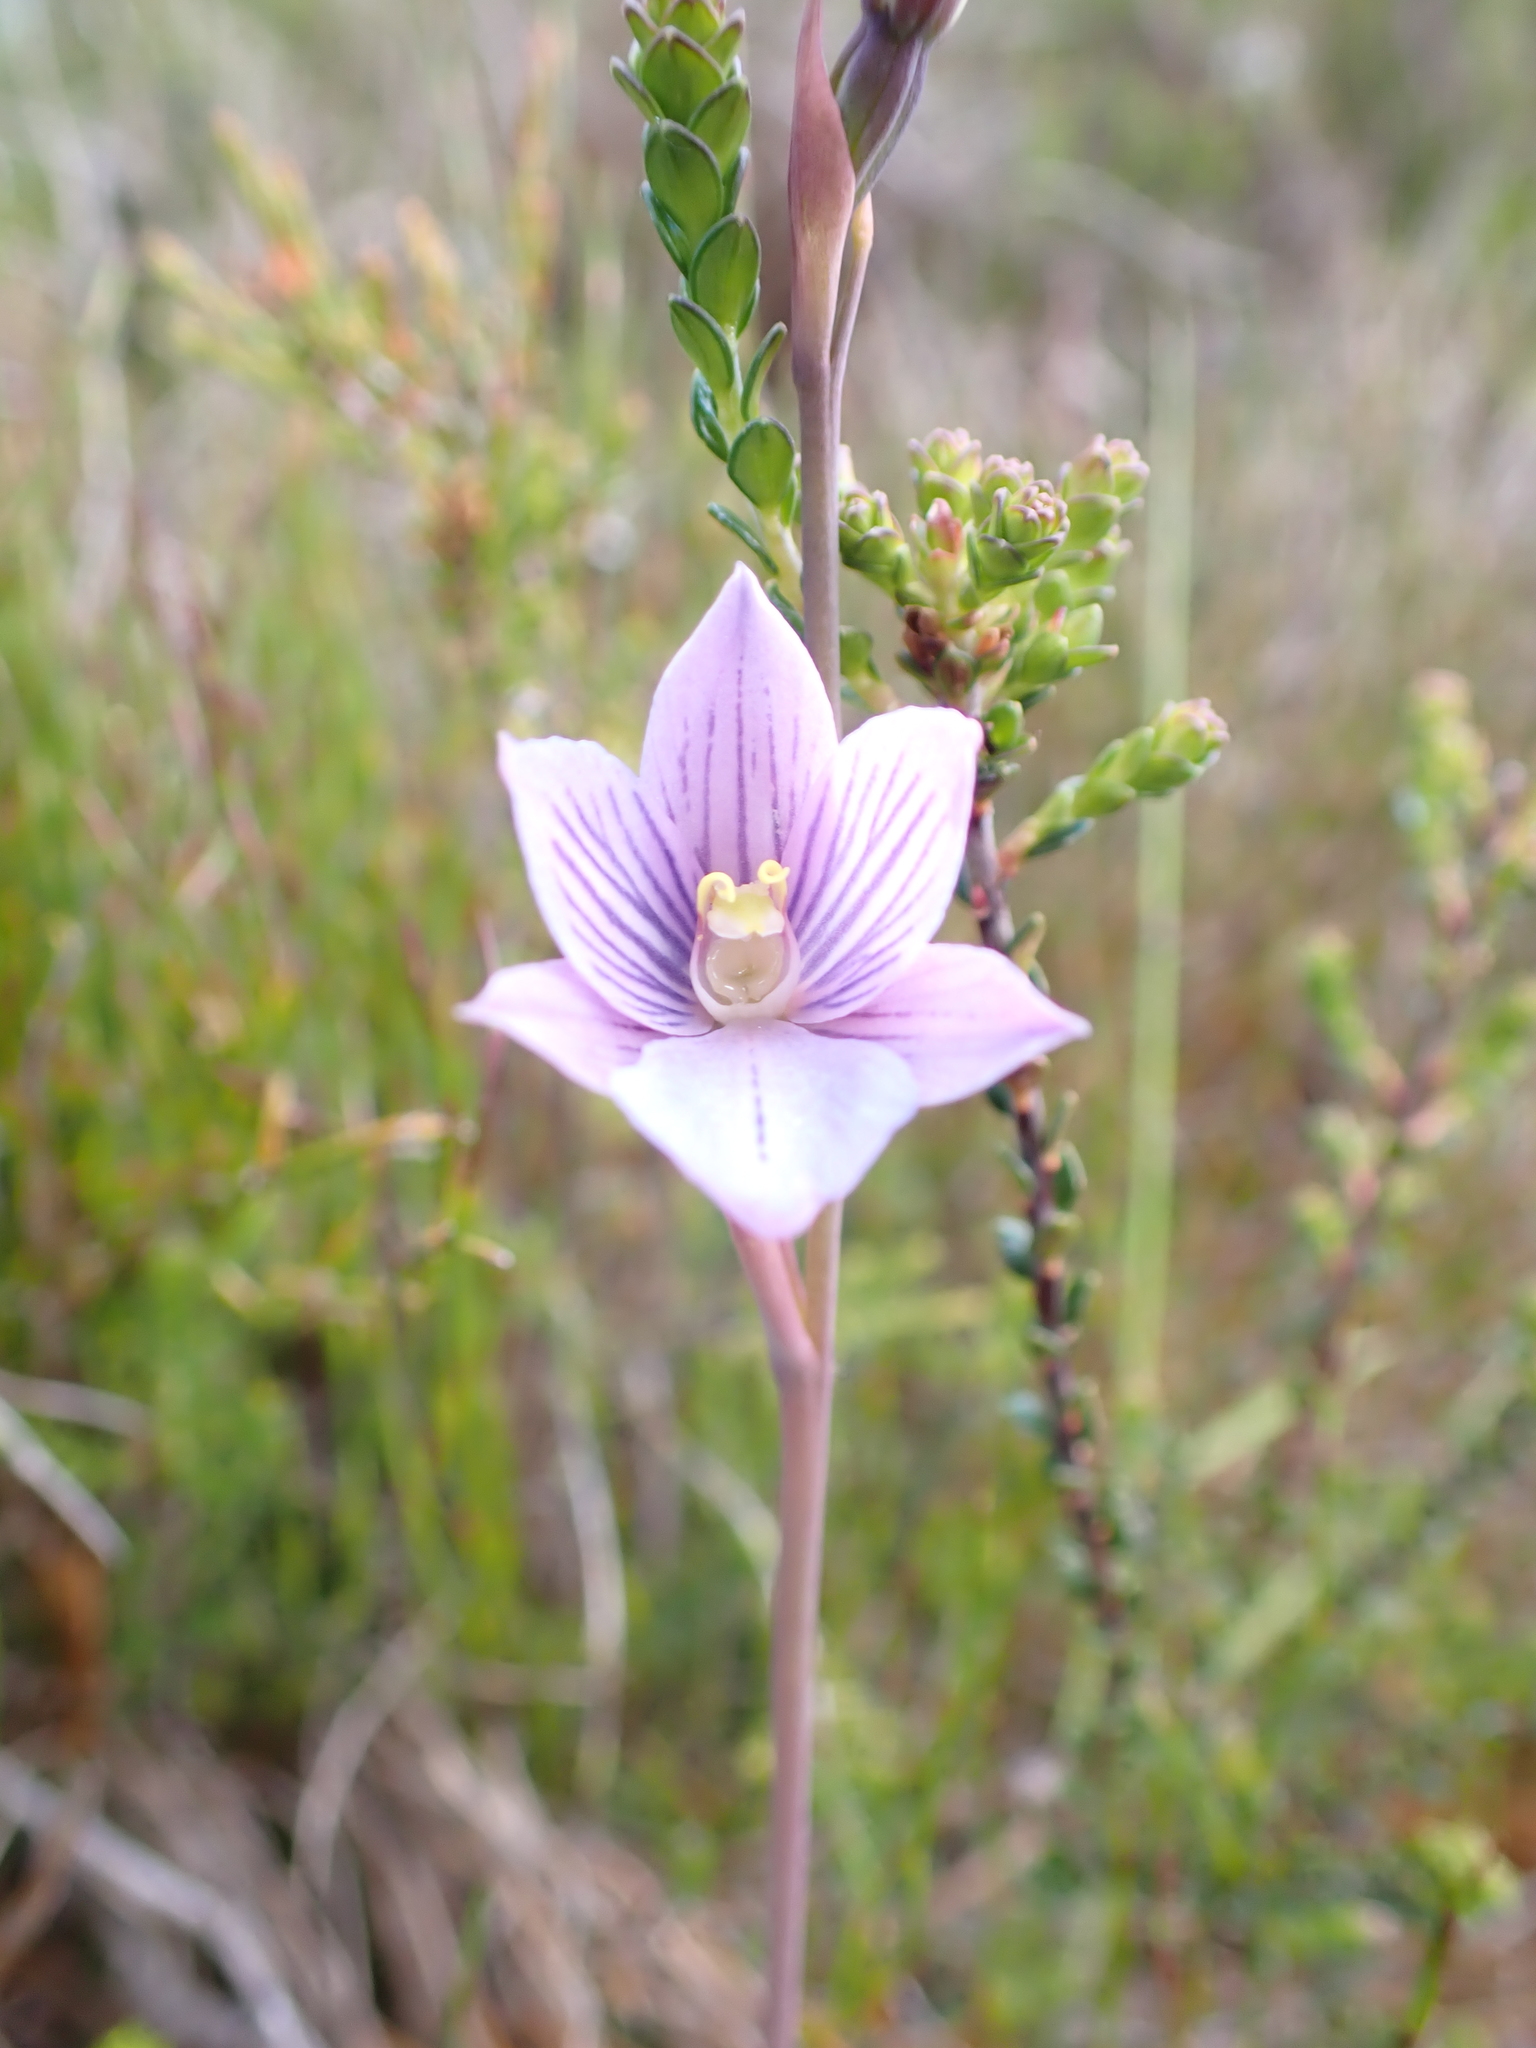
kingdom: Plantae
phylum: Tracheophyta
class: Liliopsida
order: Asparagales
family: Orchidaceae
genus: Thelymitra
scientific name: Thelymitra cyanea
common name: Blue sun-orchid
